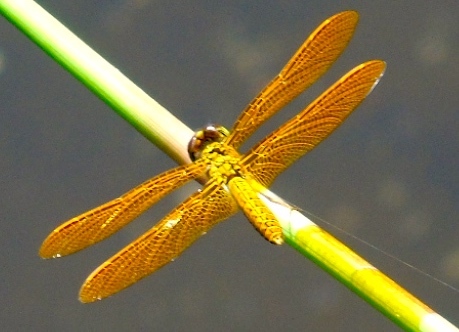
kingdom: Animalia
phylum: Arthropoda
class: Insecta
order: Odonata
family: Libellulidae
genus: Perithemis
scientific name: Perithemis
